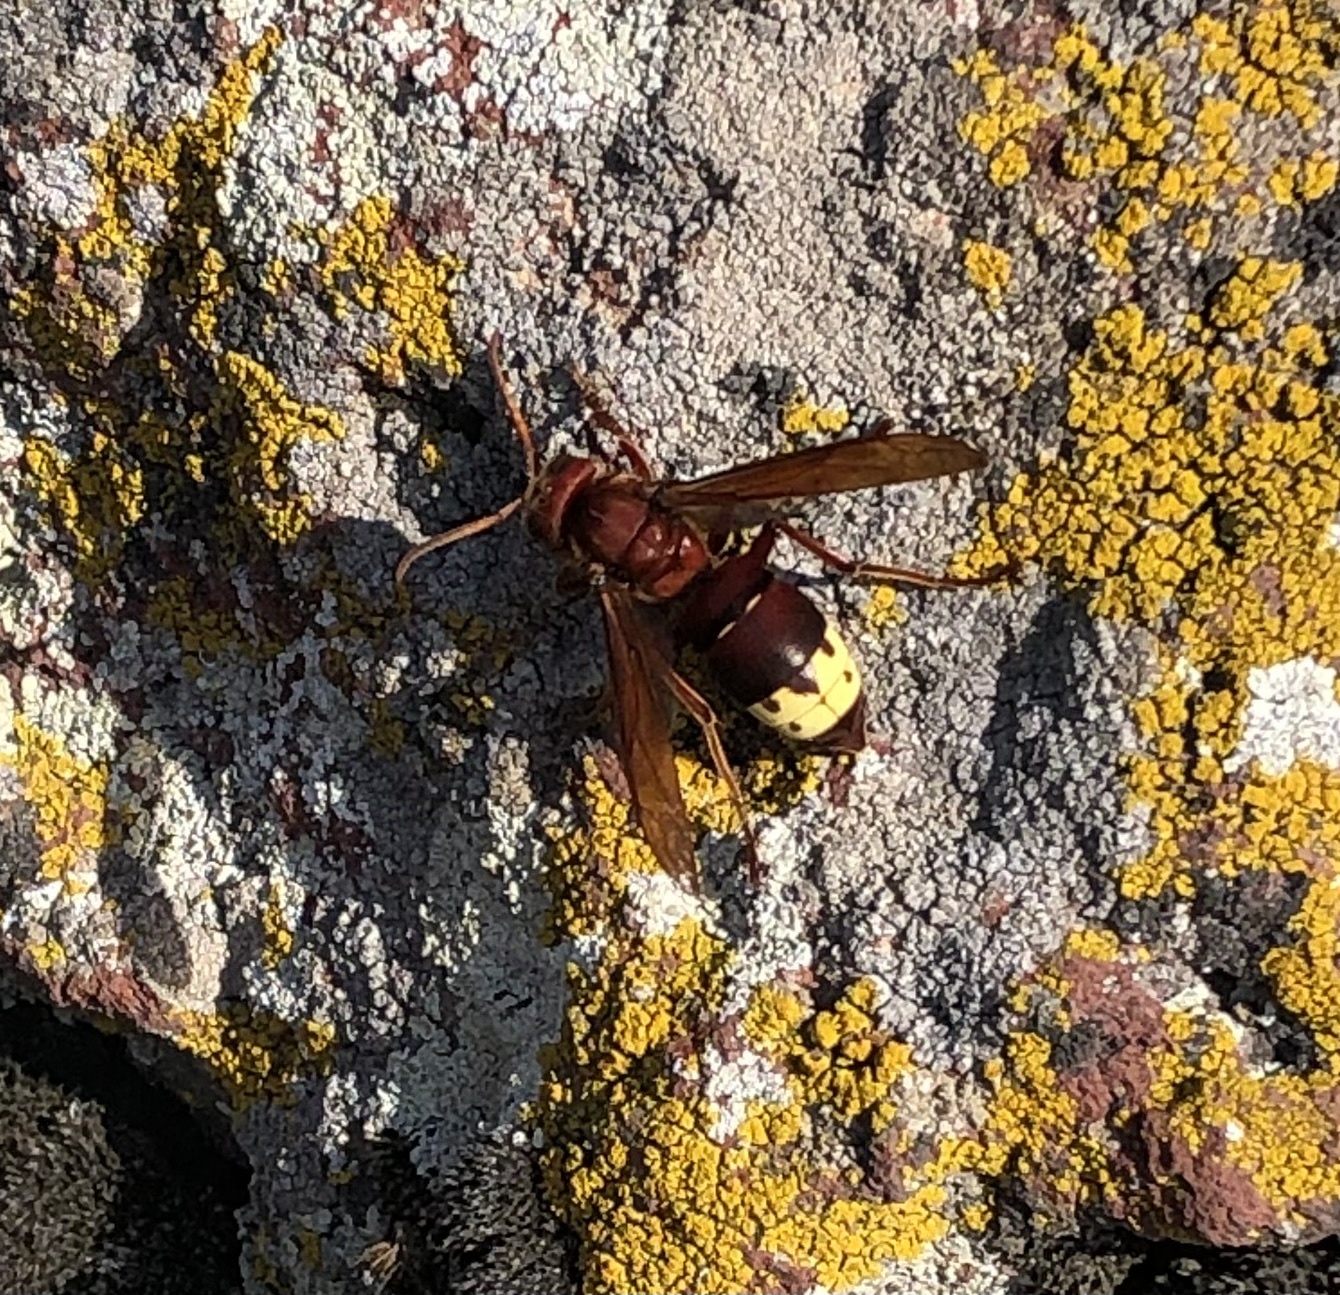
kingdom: Animalia
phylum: Arthropoda
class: Insecta
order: Hymenoptera
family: Vespidae
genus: Vespa
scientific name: Vespa orientalis
